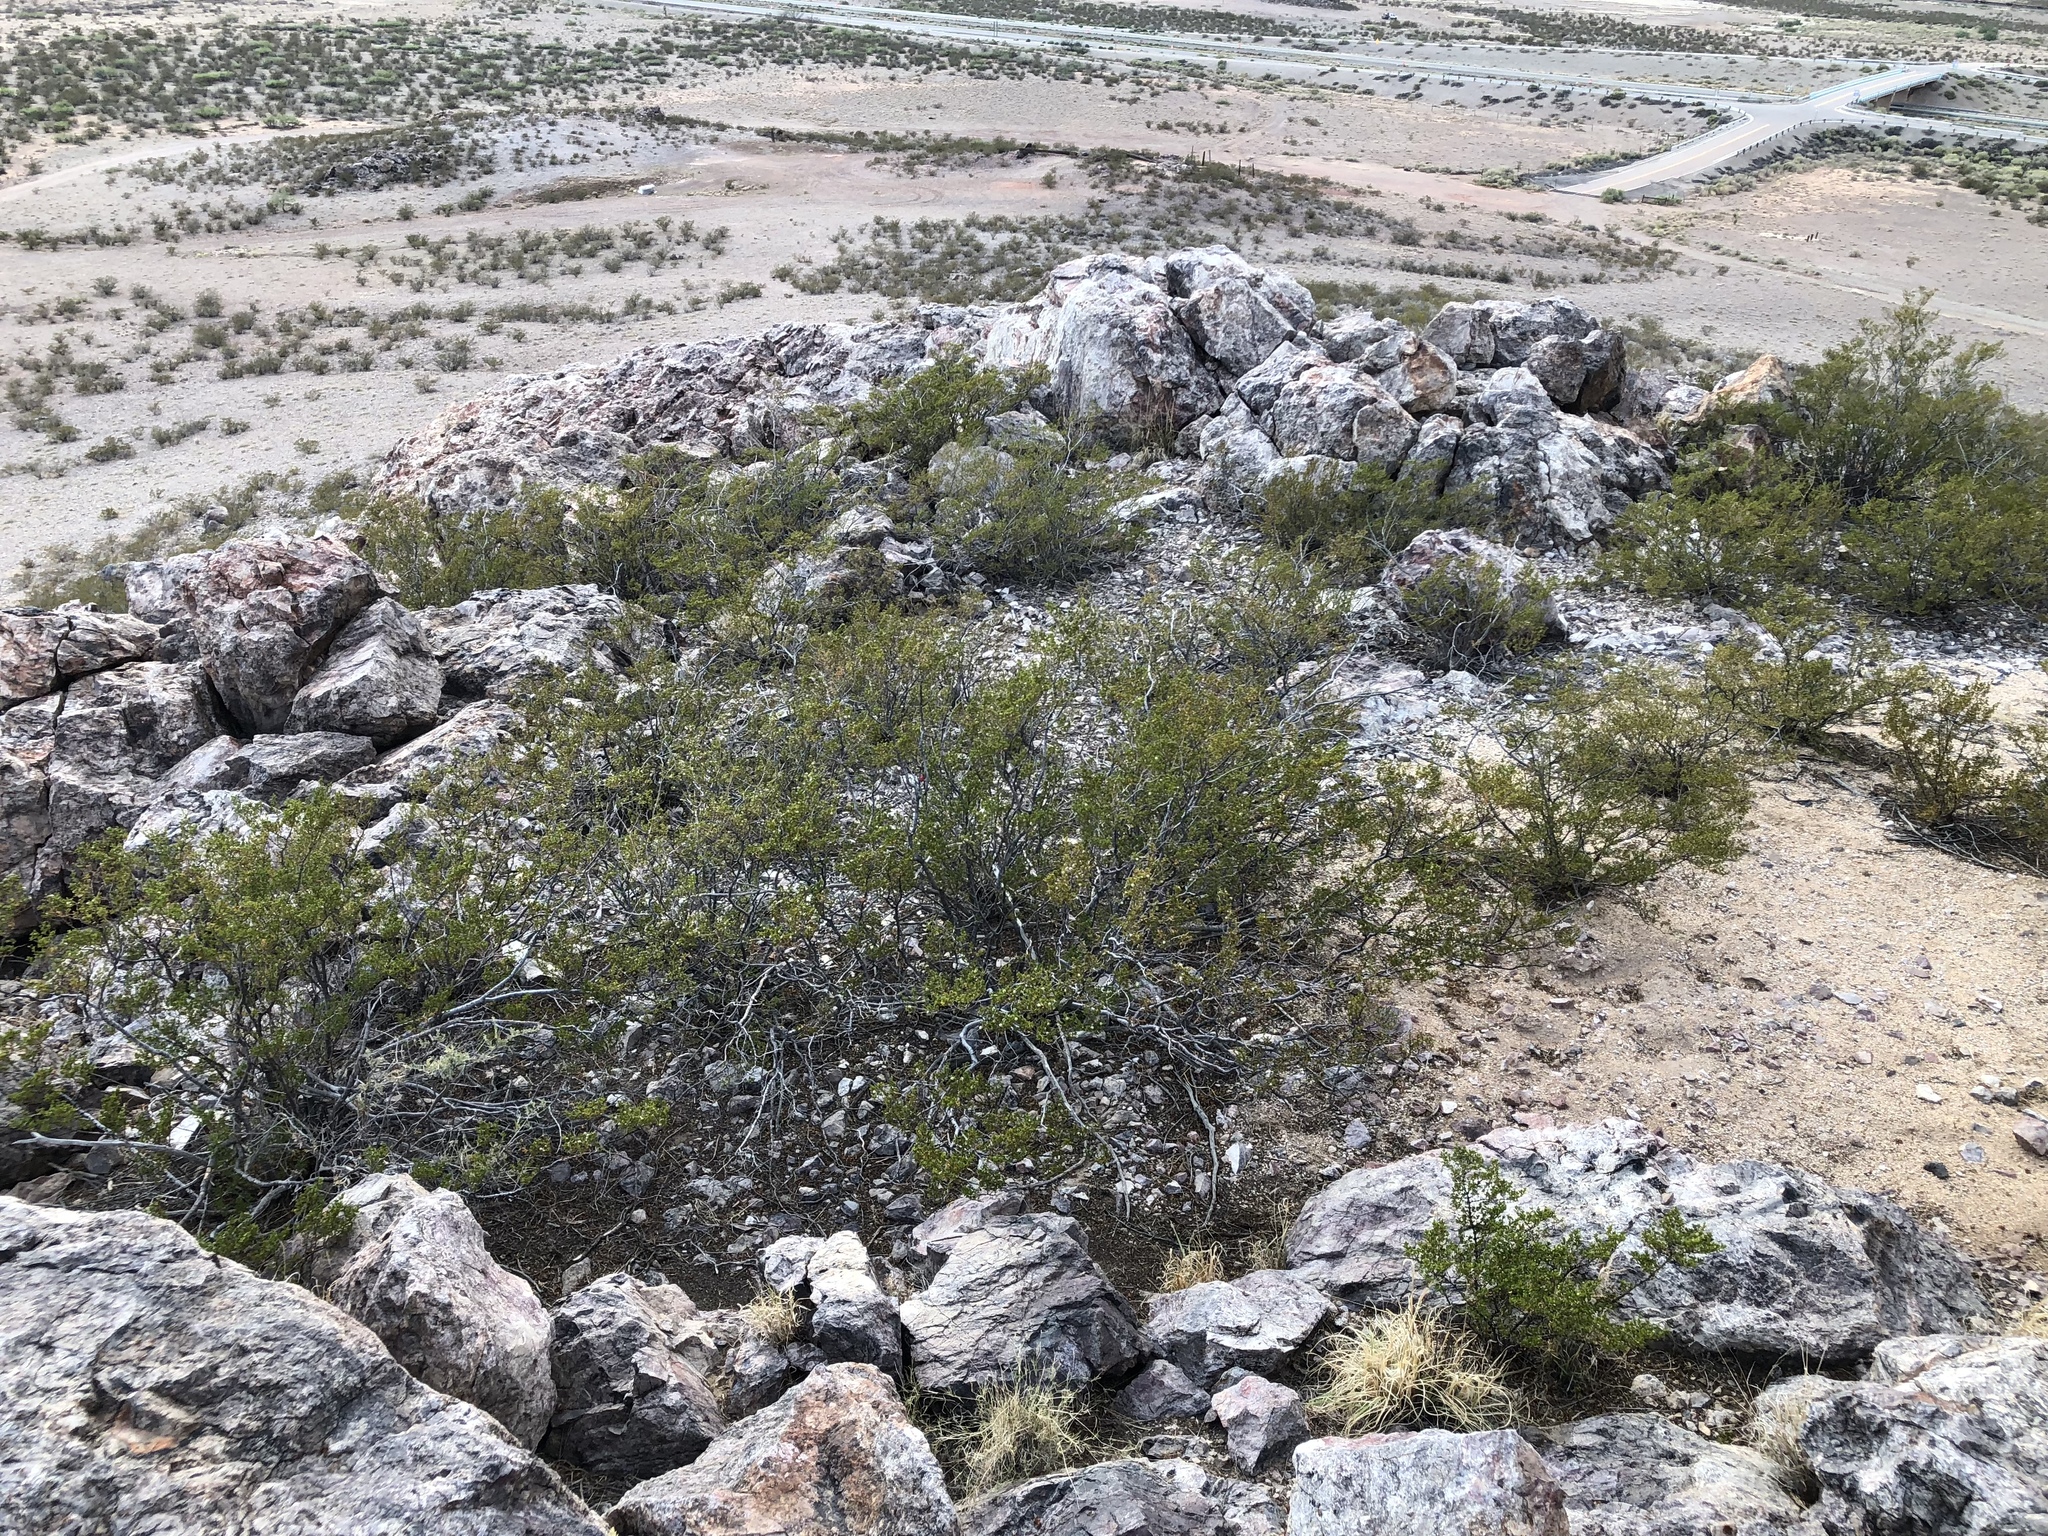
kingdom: Plantae
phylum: Tracheophyta
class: Magnoliopsida
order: Zygophyllales
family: Zygophyllaceae
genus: Larrea
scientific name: Larrea tridentata
